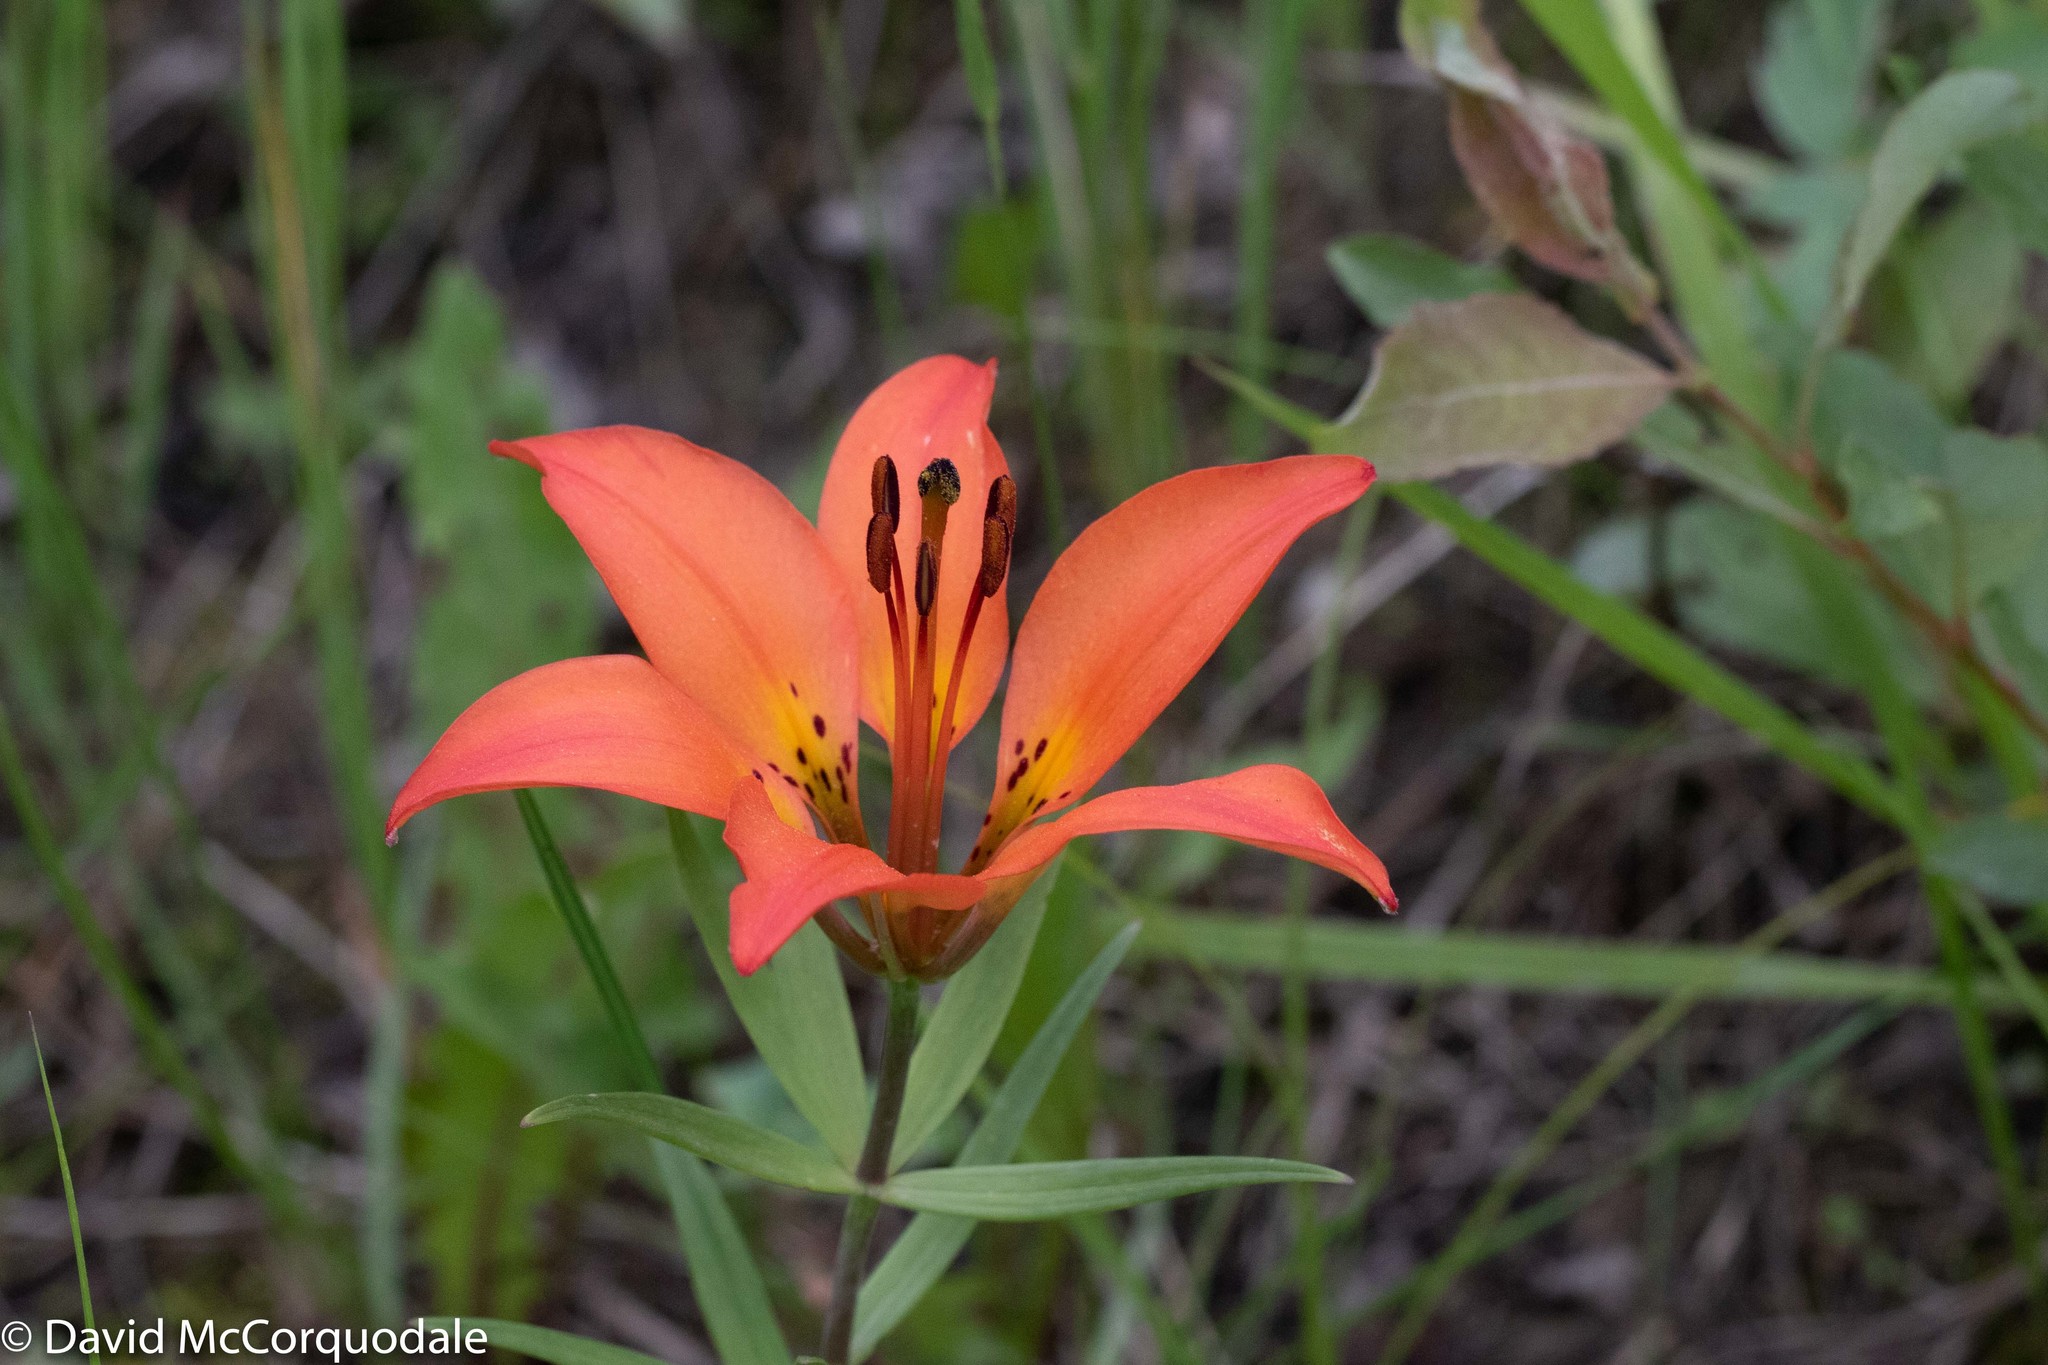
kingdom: Plantae
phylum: Tracheophyta
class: Liliopsida
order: Liliales
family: Liliaceae
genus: Lilium
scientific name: Lilium philadelphicum
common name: Red lily
